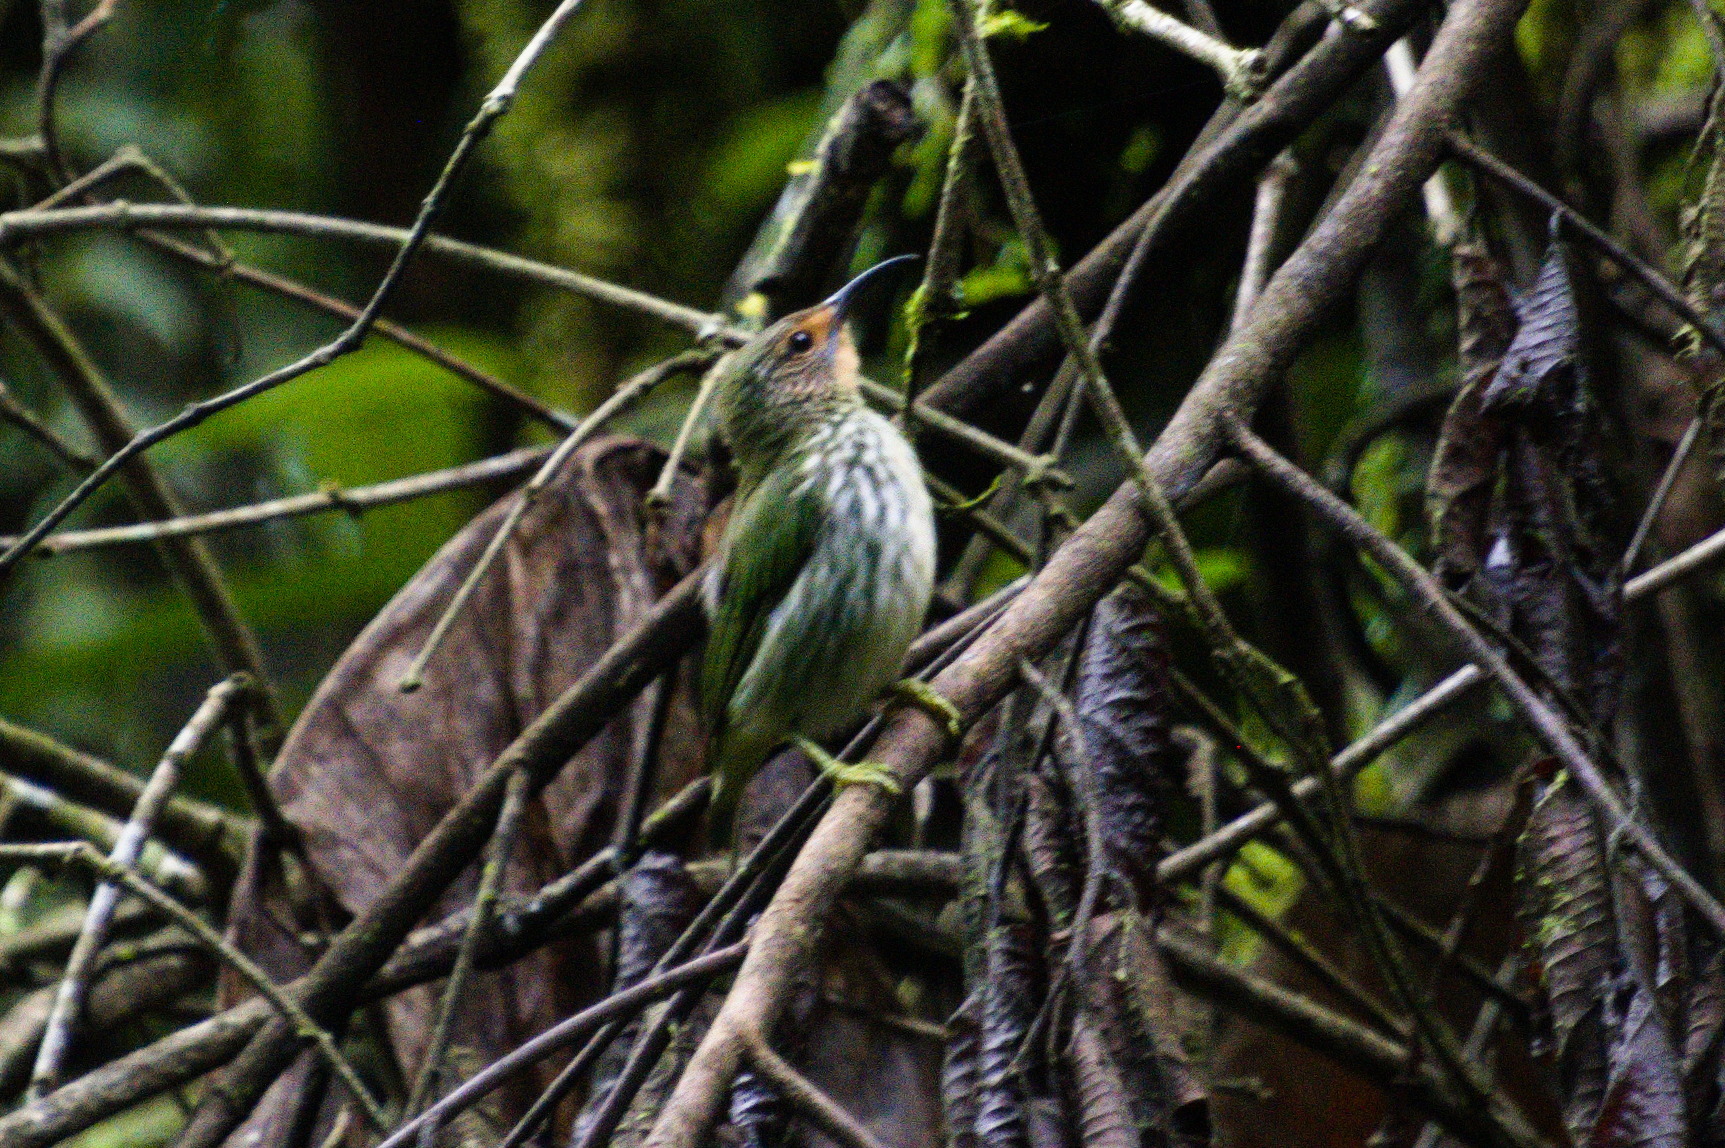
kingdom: Animalia
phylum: Chordata
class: Aves
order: Passeriformes
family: Thraupidae
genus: Cyanerpes
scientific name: Cyanerpes caeruleus
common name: Purple honeycreeper
